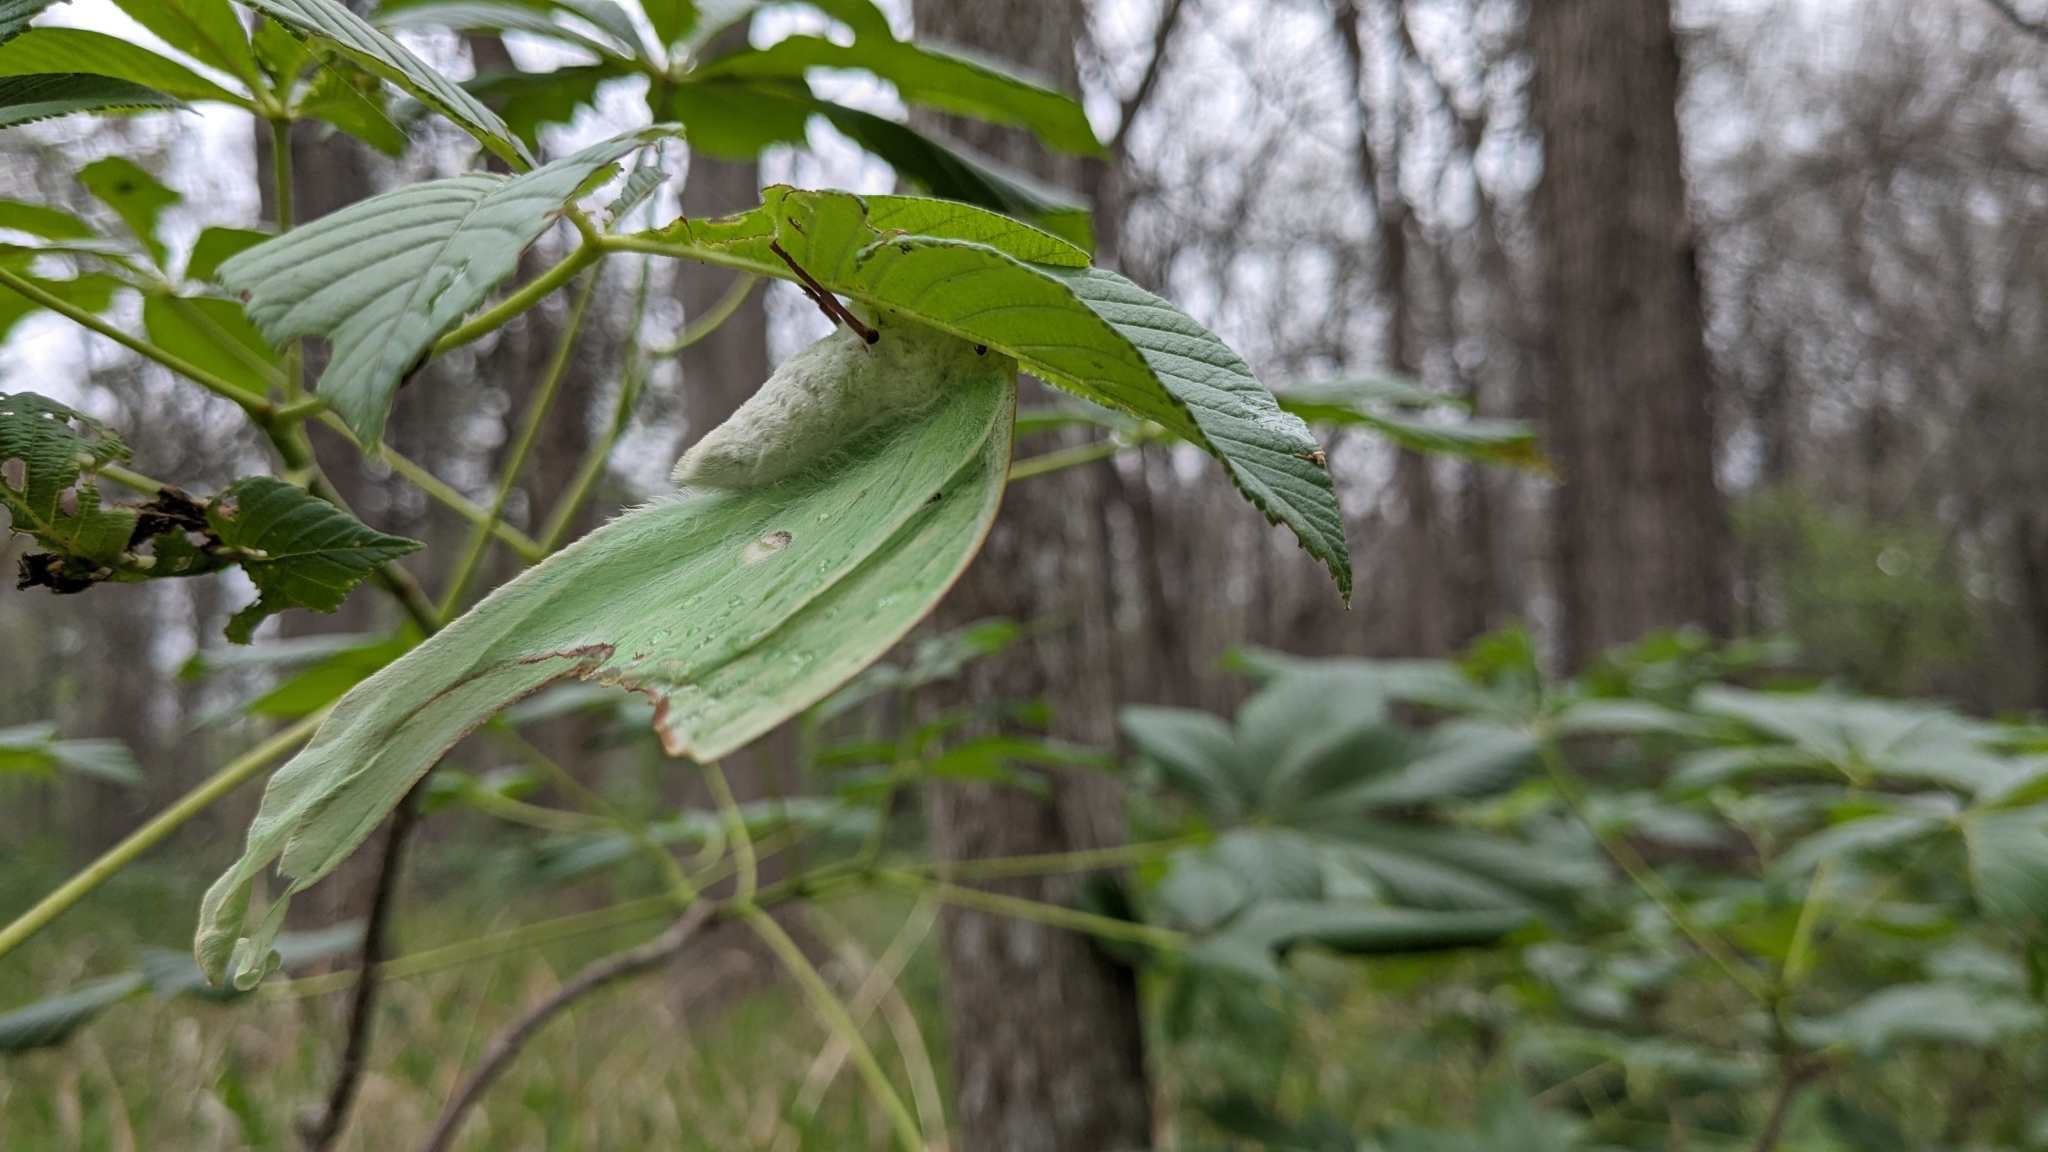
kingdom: Animalia
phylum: Arthropoda
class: Insecta
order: Lepidoptera
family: Saturniidae
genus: Actias
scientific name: Actias luna
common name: Luna moth
